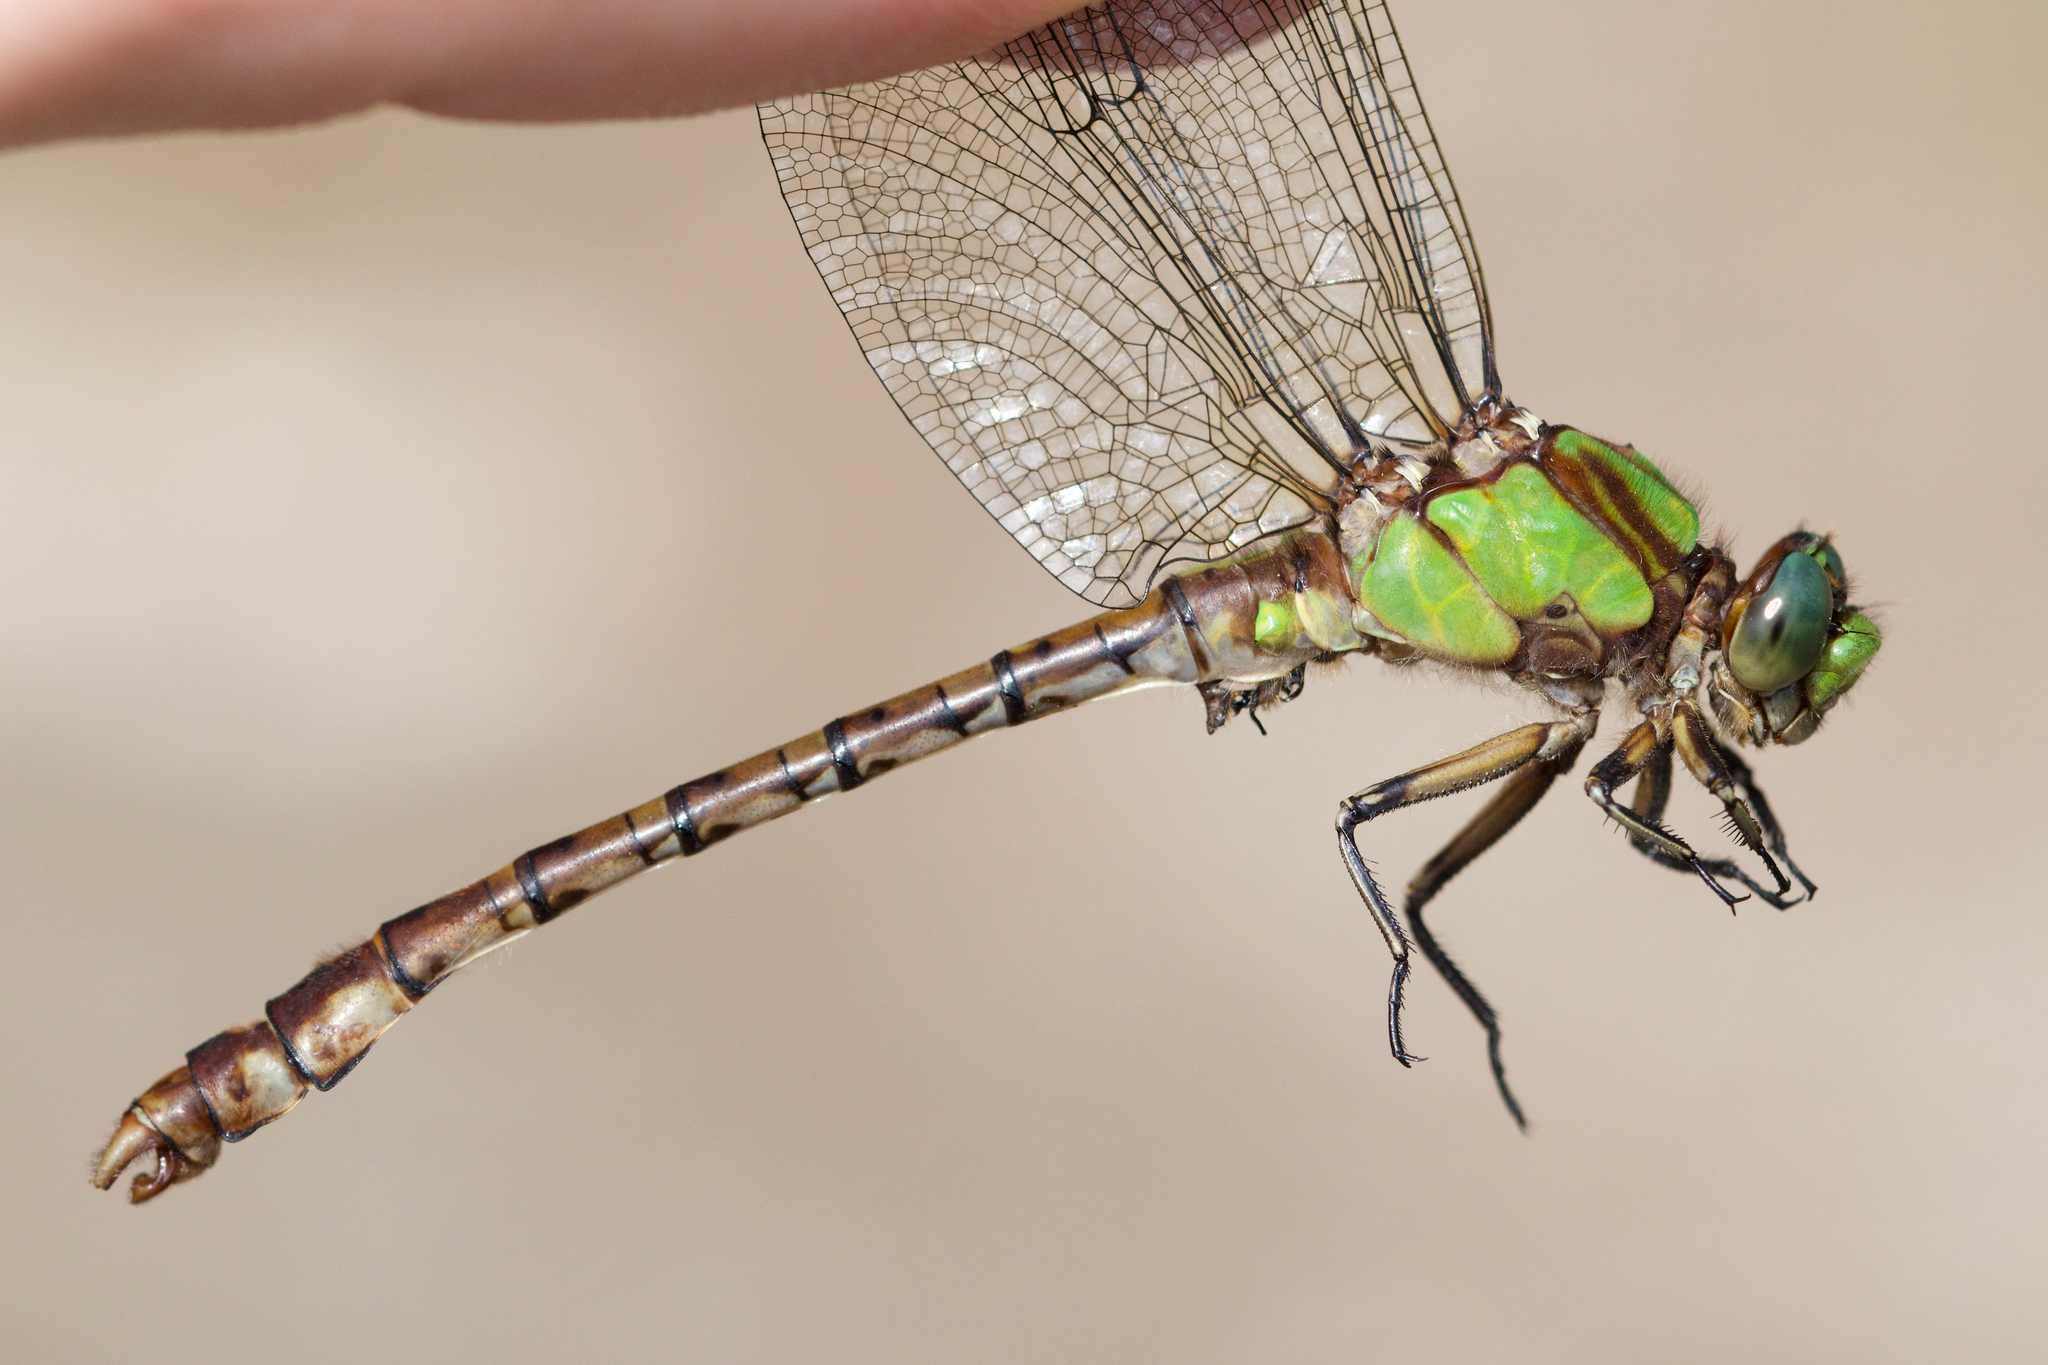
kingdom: Animalia
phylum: Arthropoda
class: Insecta
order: Odonata
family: Gomphidae
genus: Ophiogomphus
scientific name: Ophiogomphus rupinsulensis
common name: Rusty snaketail
